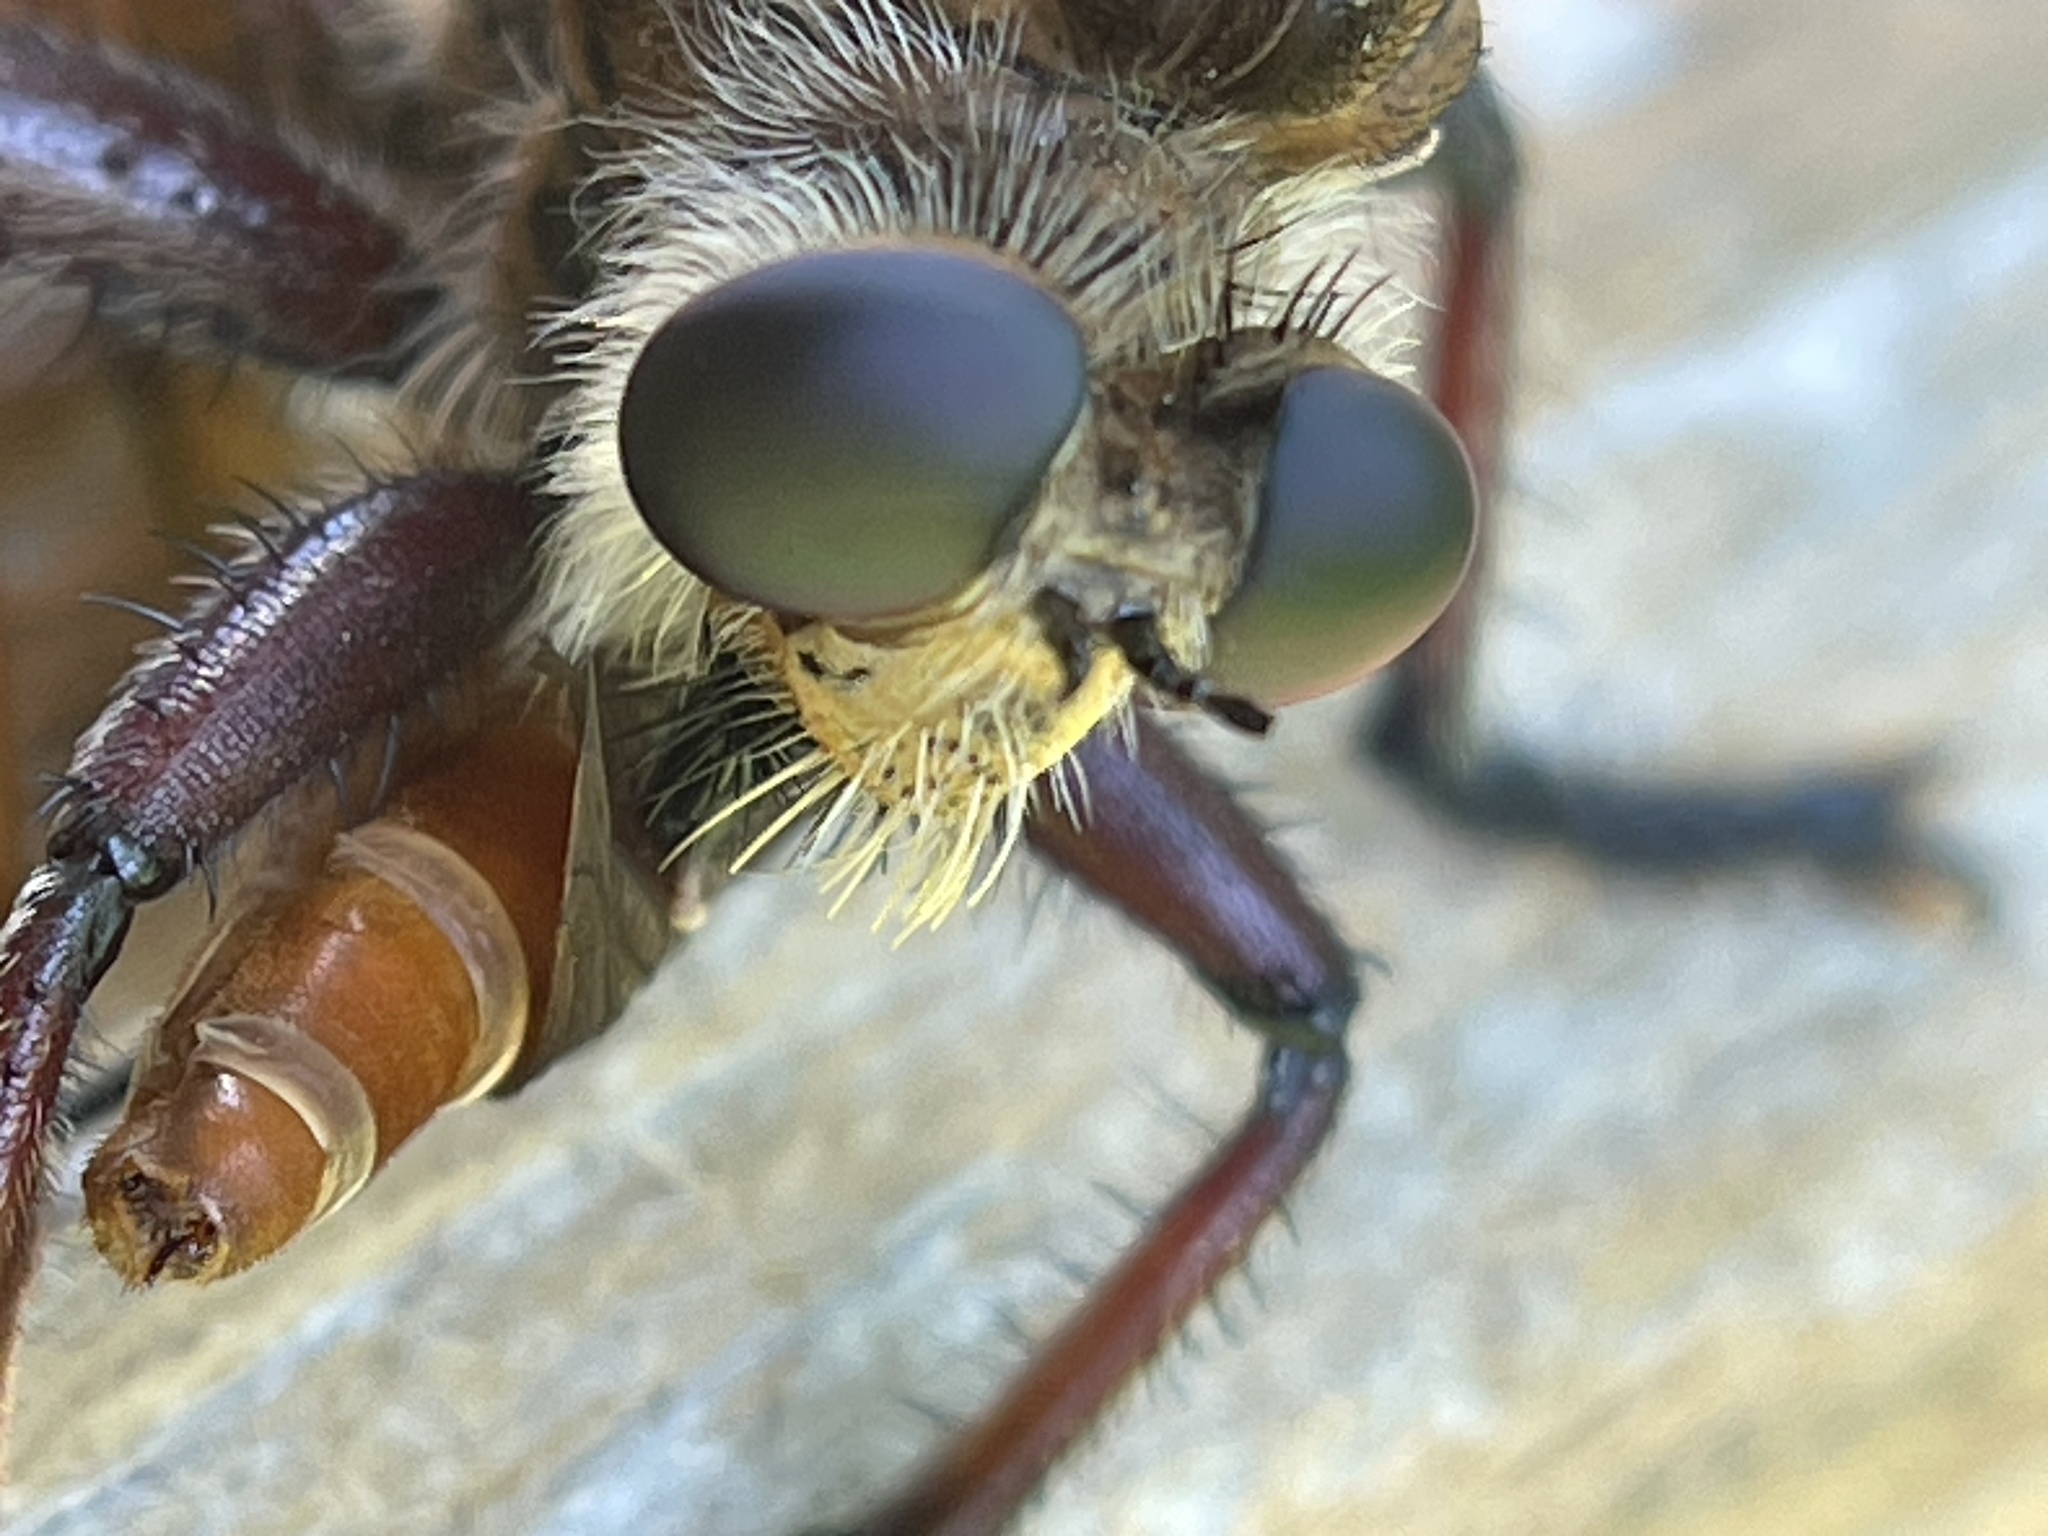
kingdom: Animalia
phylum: Arthropoda
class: Insecta
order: Diptera
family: Asilidae
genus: Promachus
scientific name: Promachus hinei
